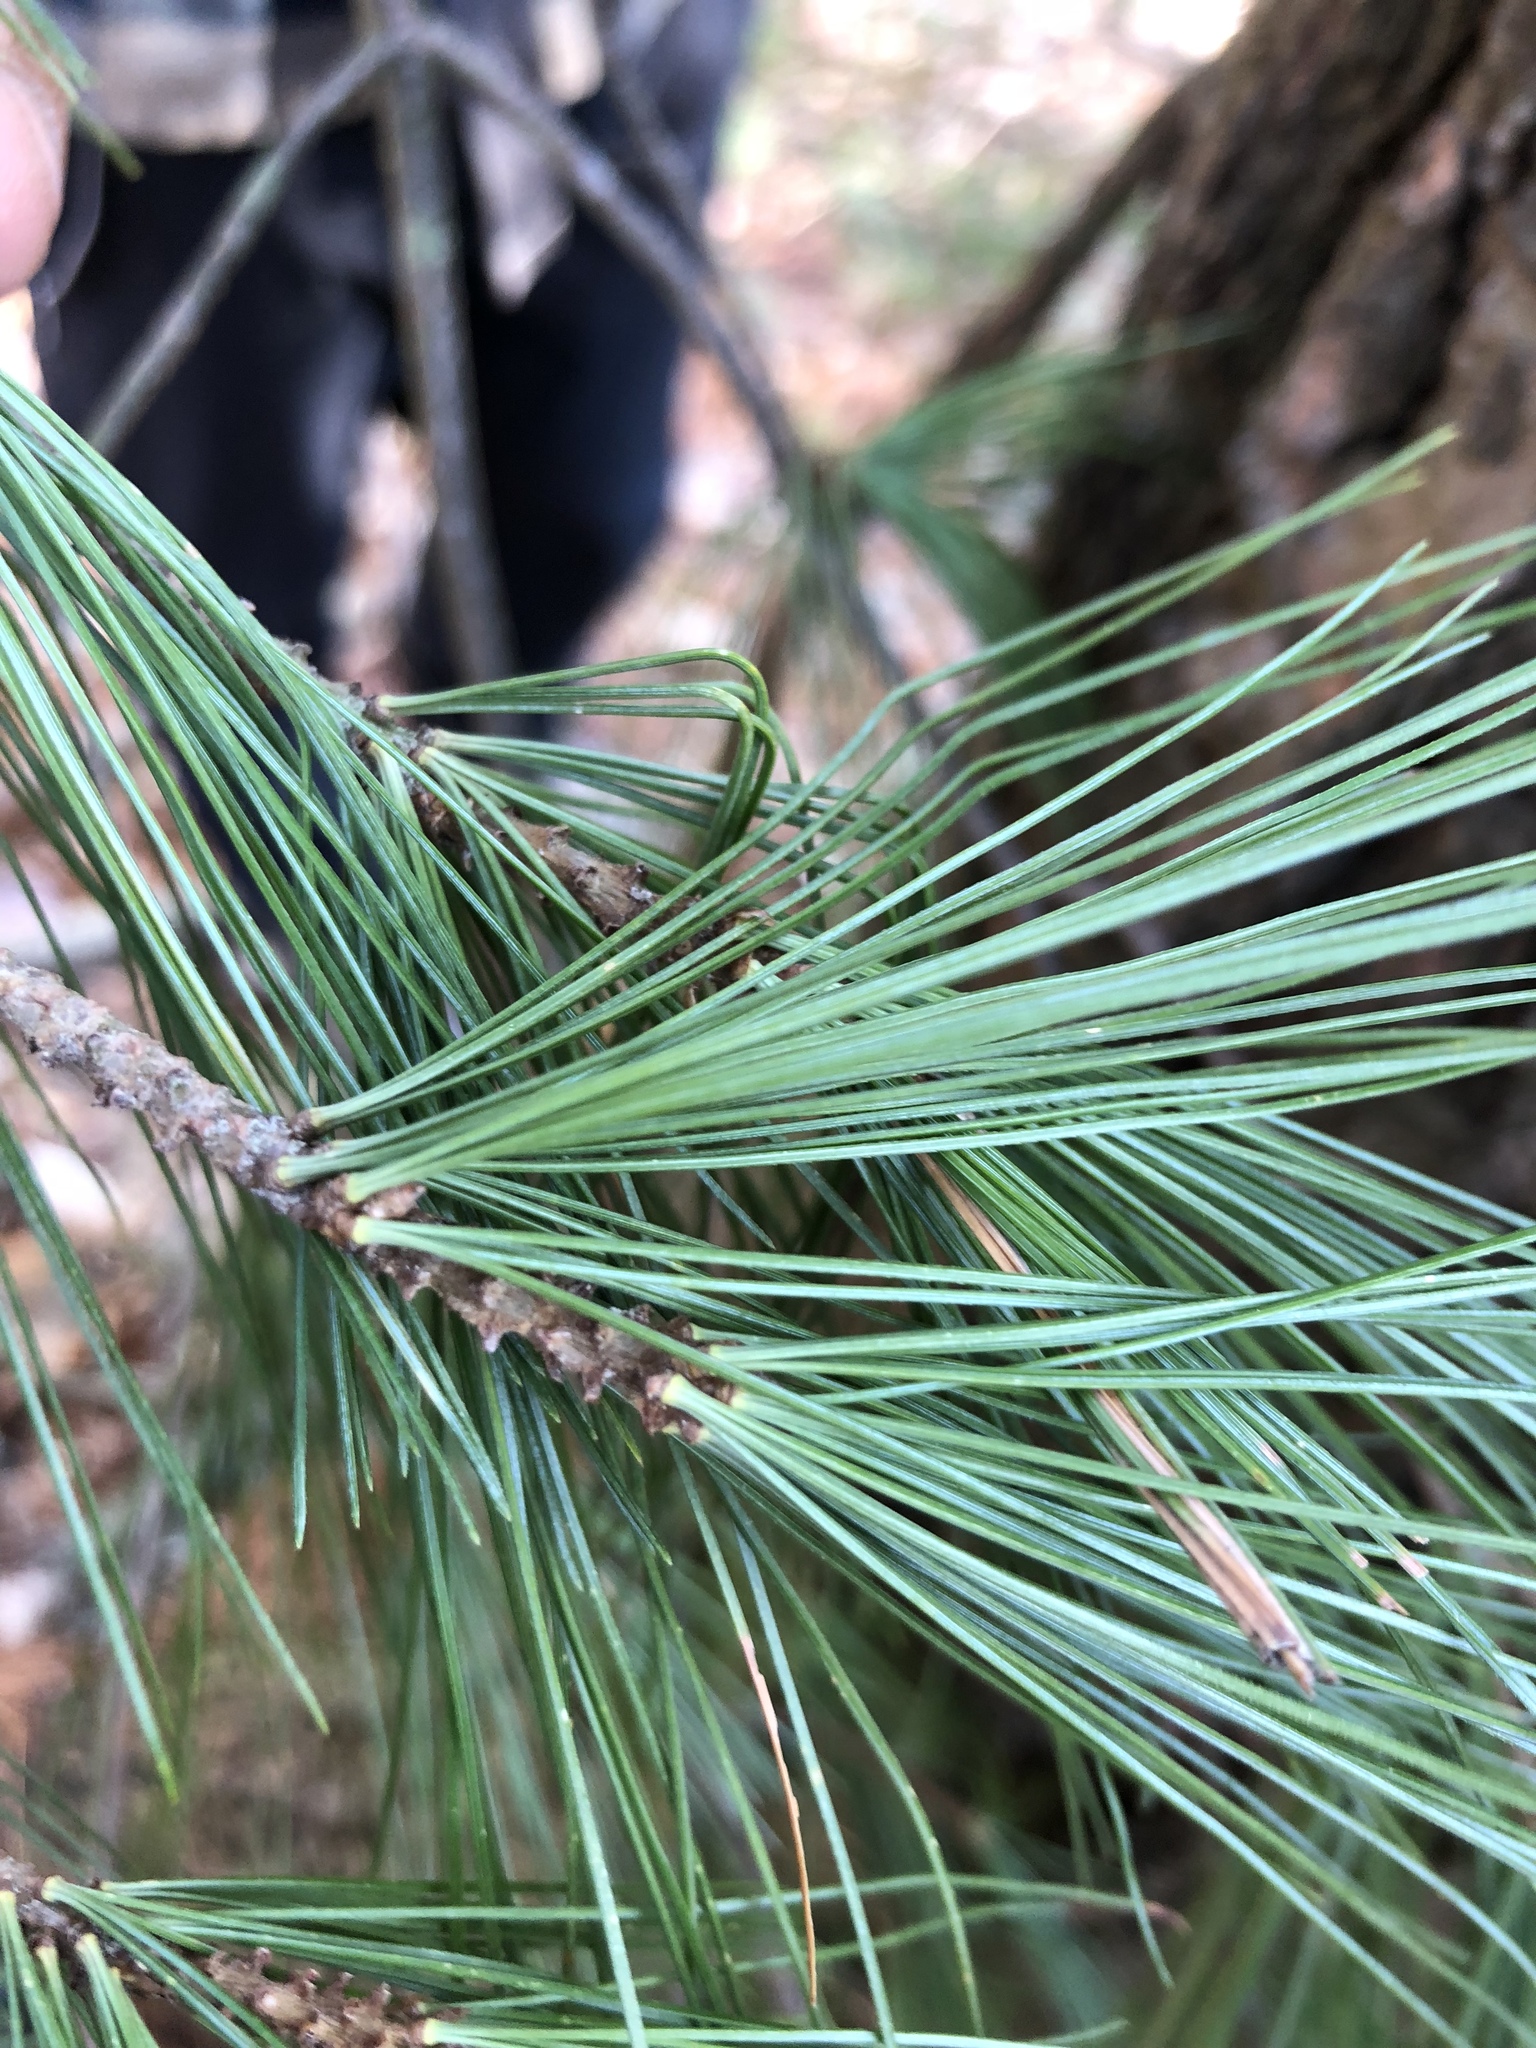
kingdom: Plantae
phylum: Tracheophyta
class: Pinopsida
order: Pinales
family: Pinaceae
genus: Pinus
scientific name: Pinus strobus
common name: Weymouth pine
